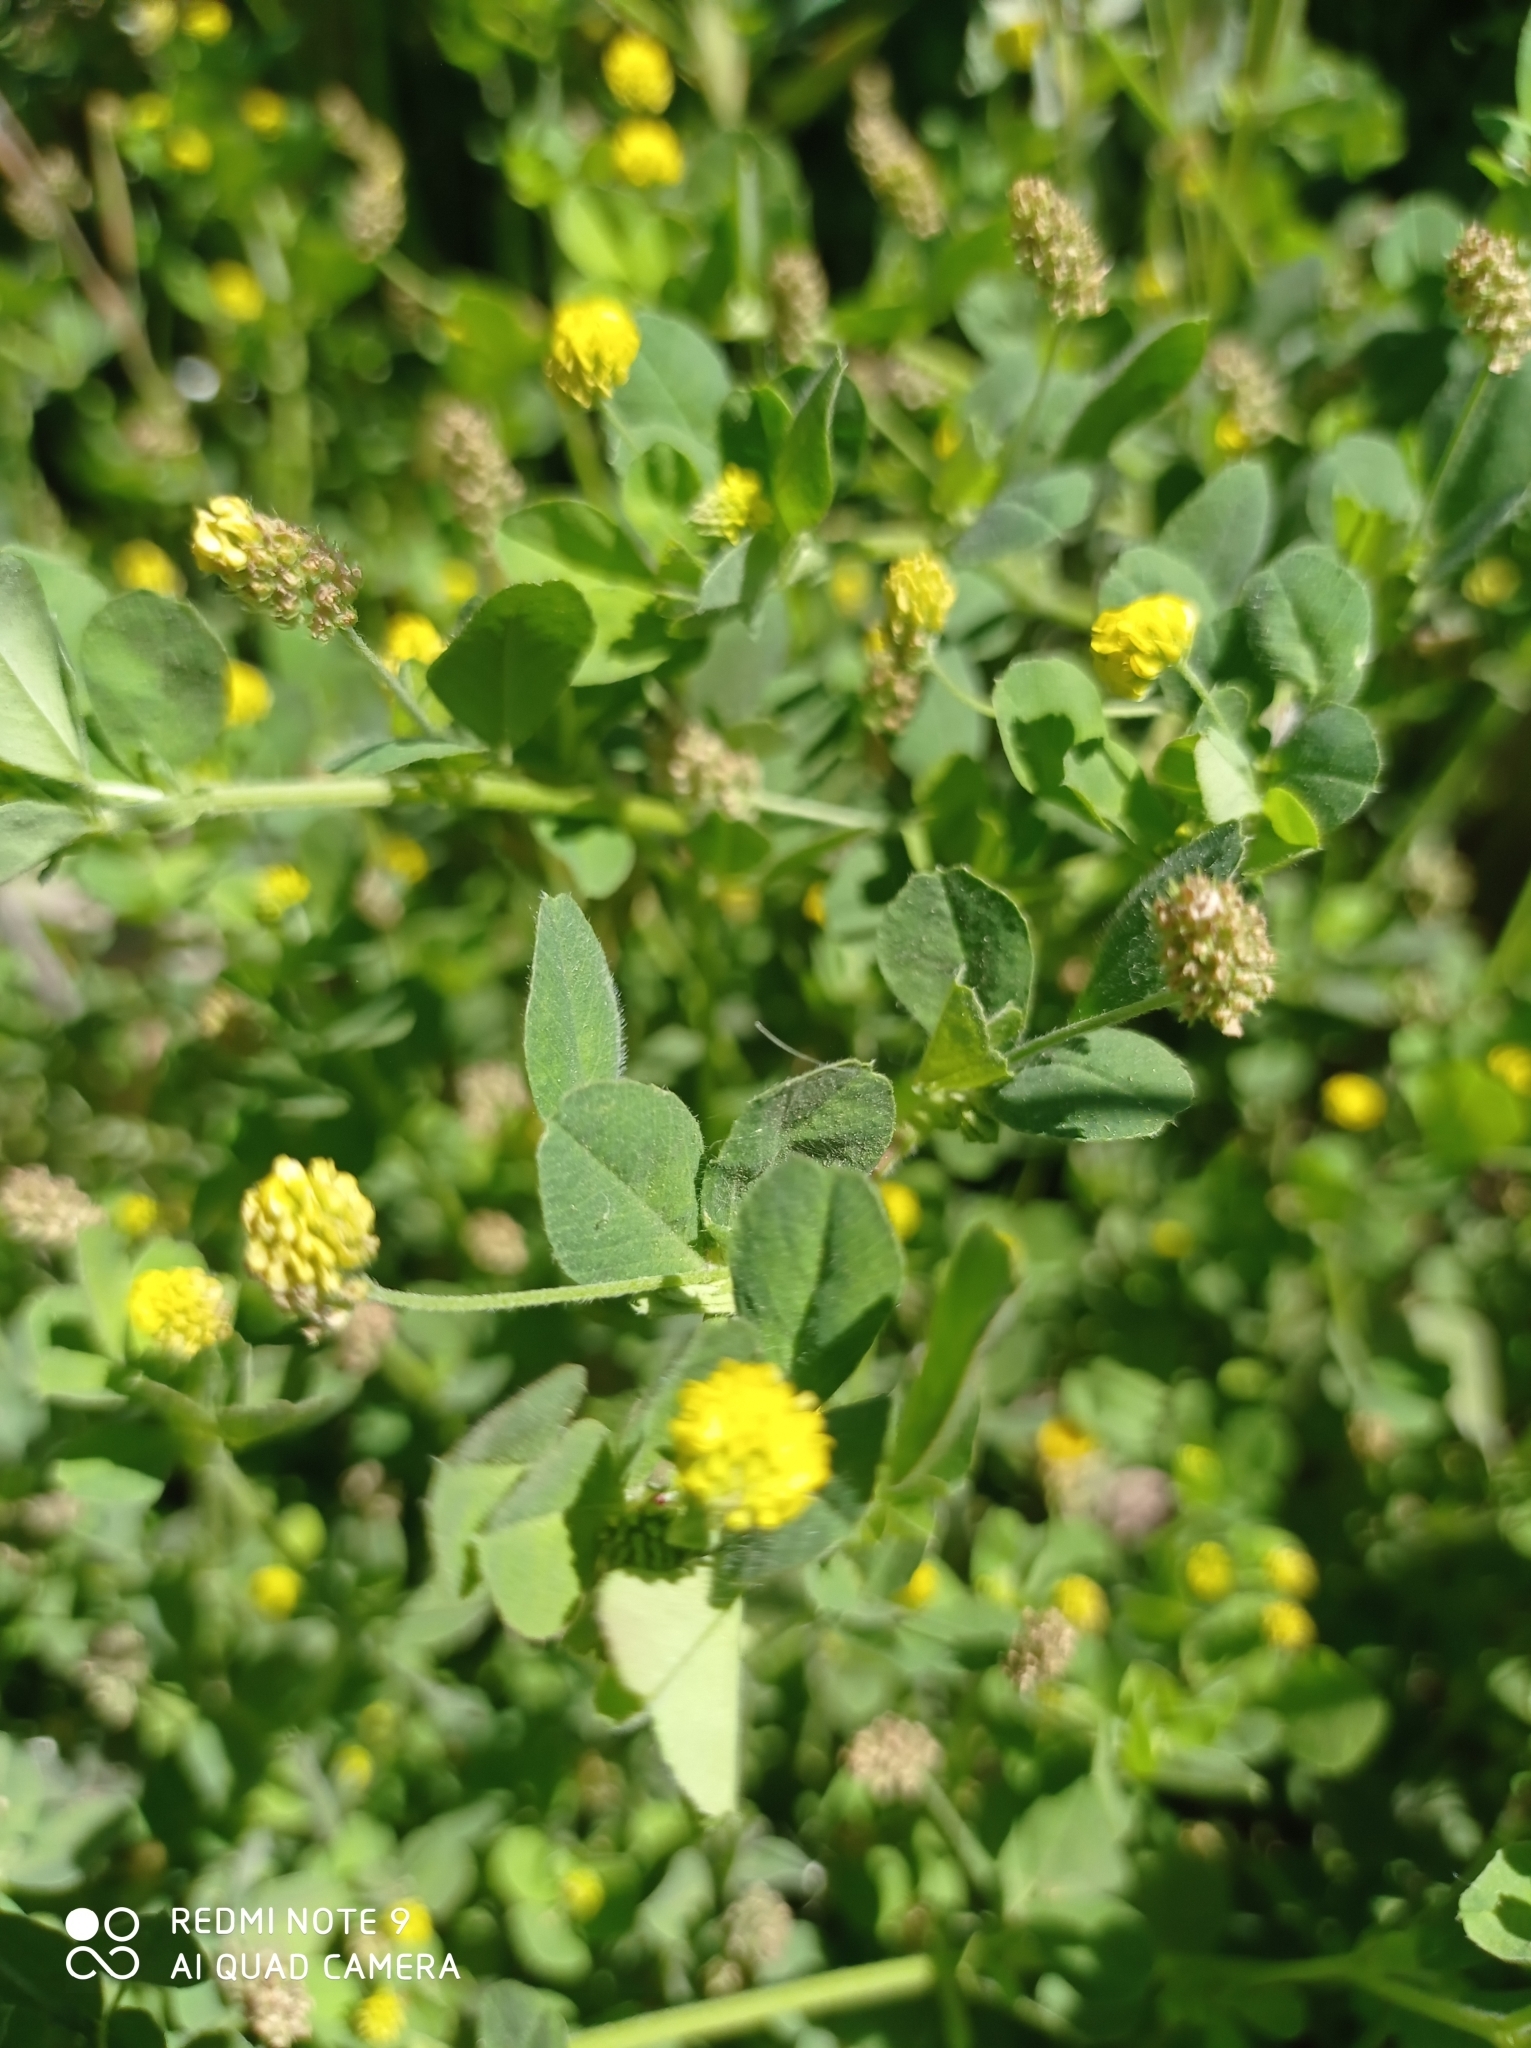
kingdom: Plantae
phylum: Tracheophyta
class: Magnoliopsida
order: Fabales
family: Fabaceae
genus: Medicago
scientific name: Medicago lupulina
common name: Black medick
